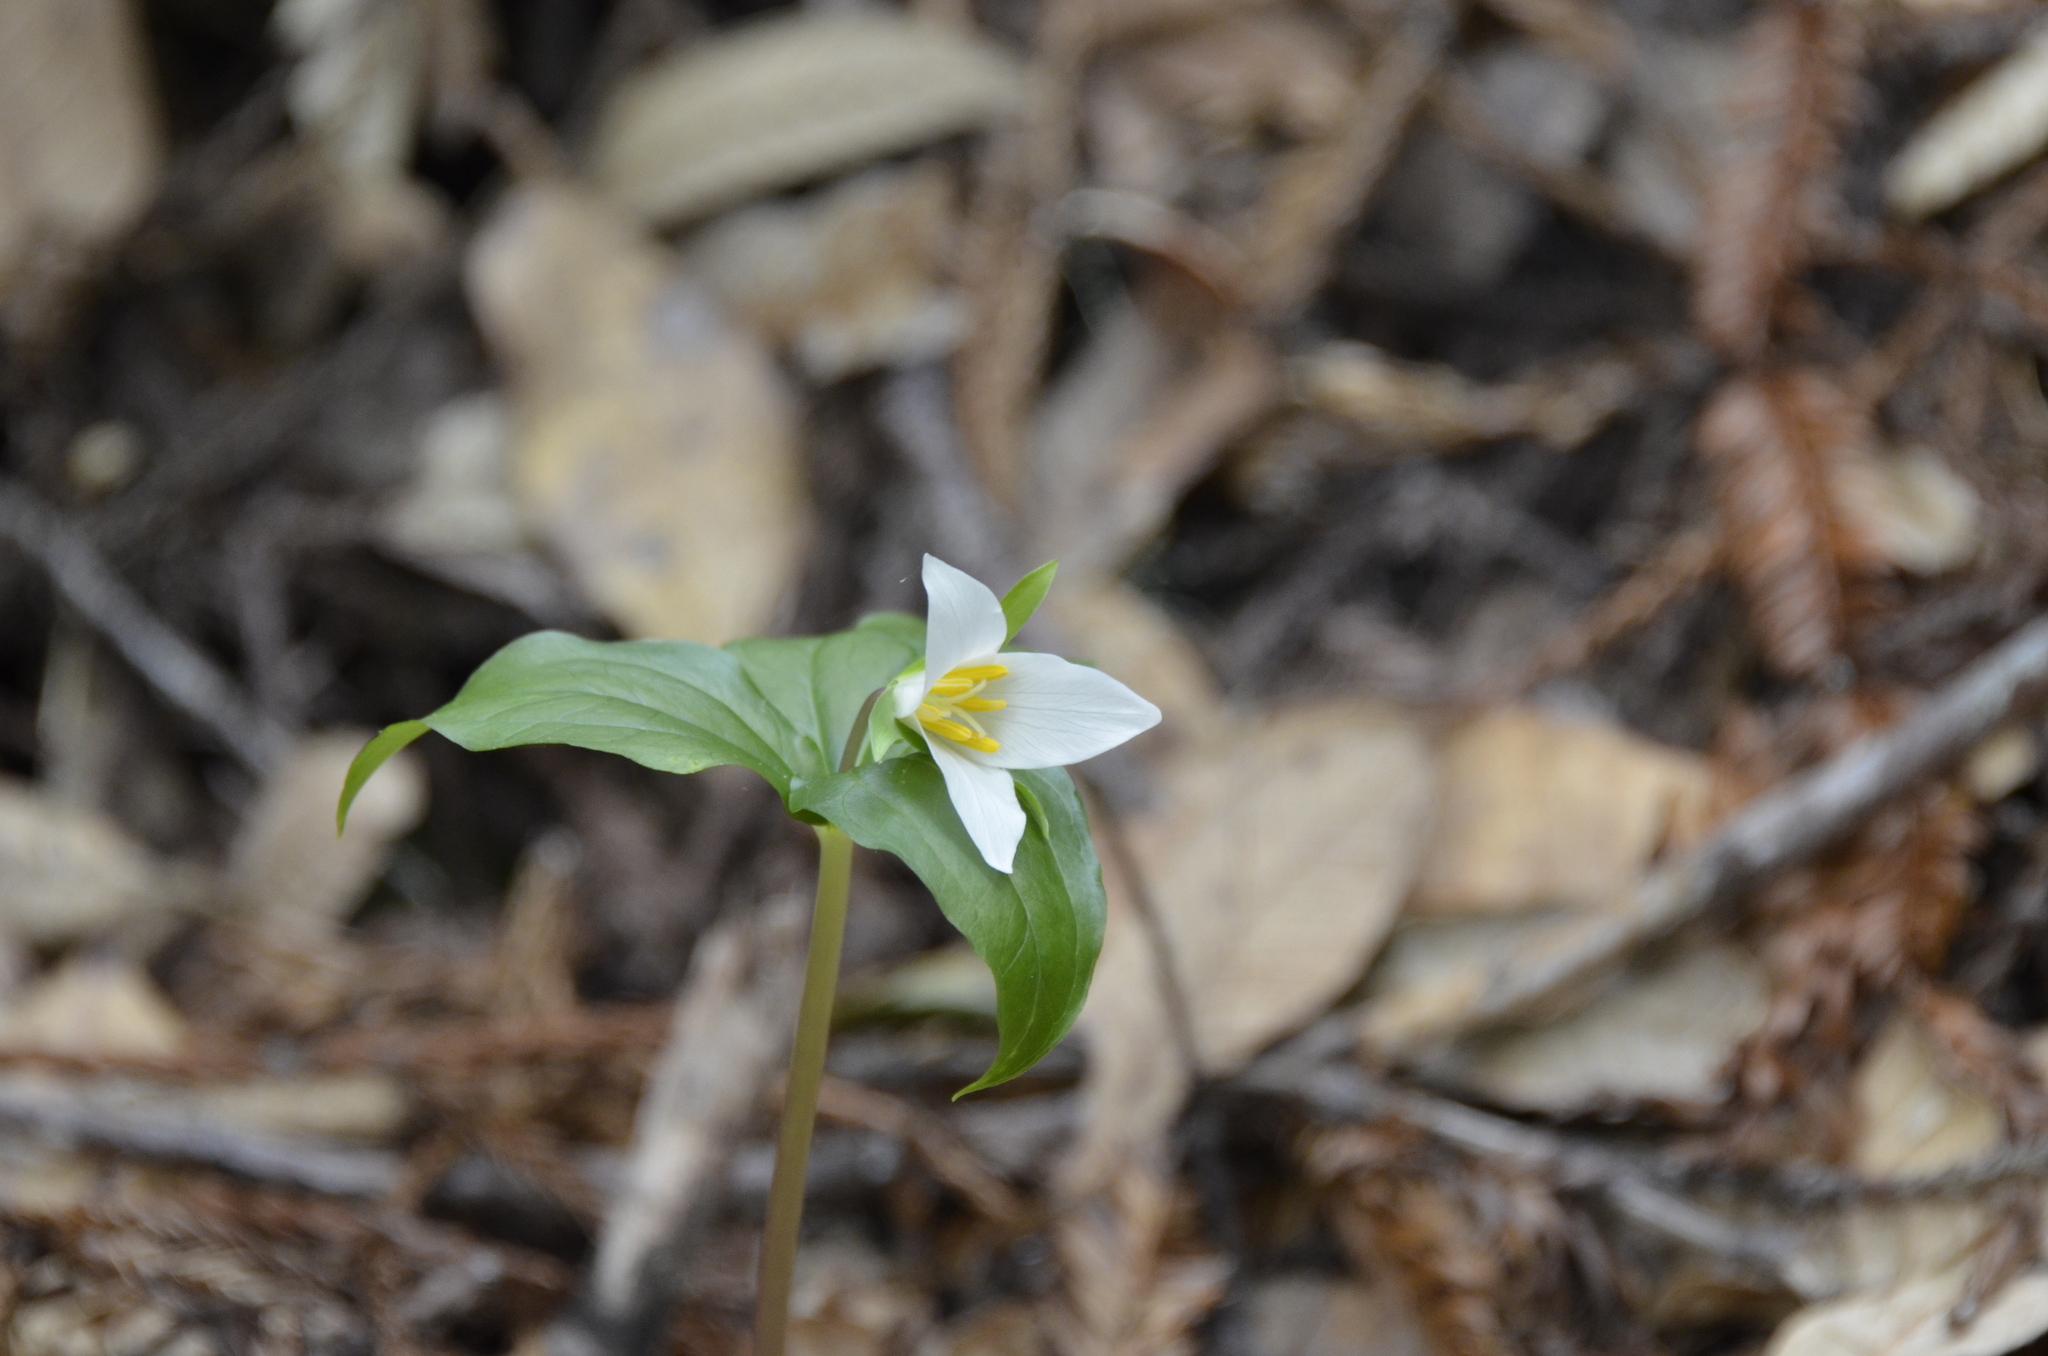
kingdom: Plantae
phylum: Tracheophyta
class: Liliopsida
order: Liliales
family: Melanthiaceae
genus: Trillium
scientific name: Trillium ovatum
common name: Pacific trillium
